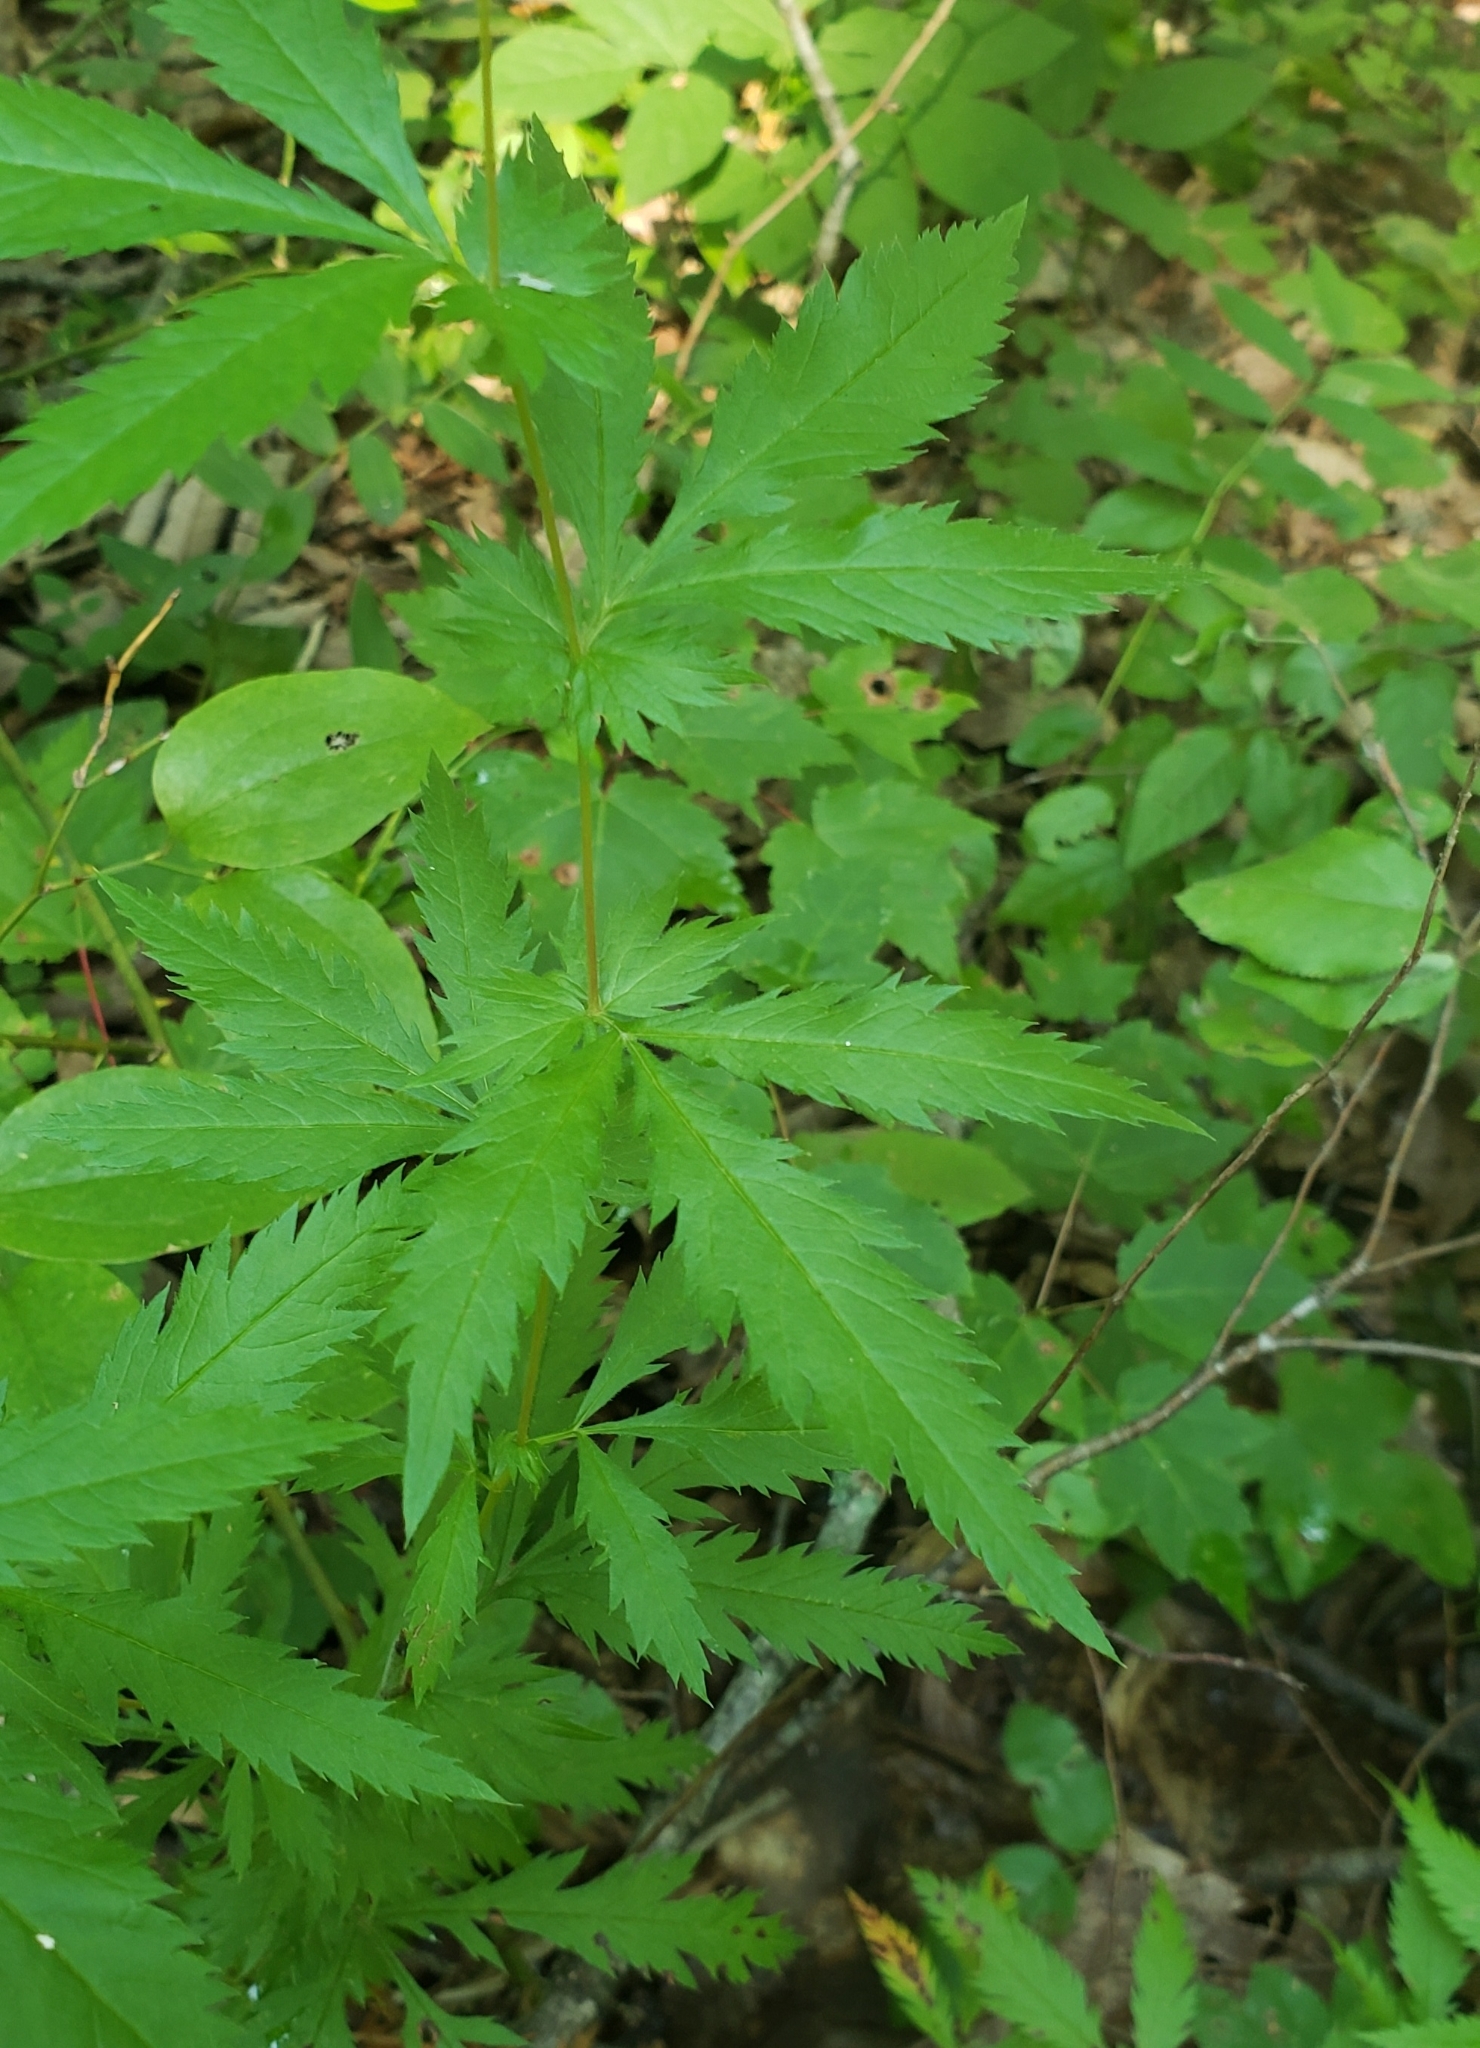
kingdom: Plantae
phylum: Tracheophyta
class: Magnoliopsida
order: Rosales
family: Rosaceae
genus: Gillenia
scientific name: Gillenia stipulata
